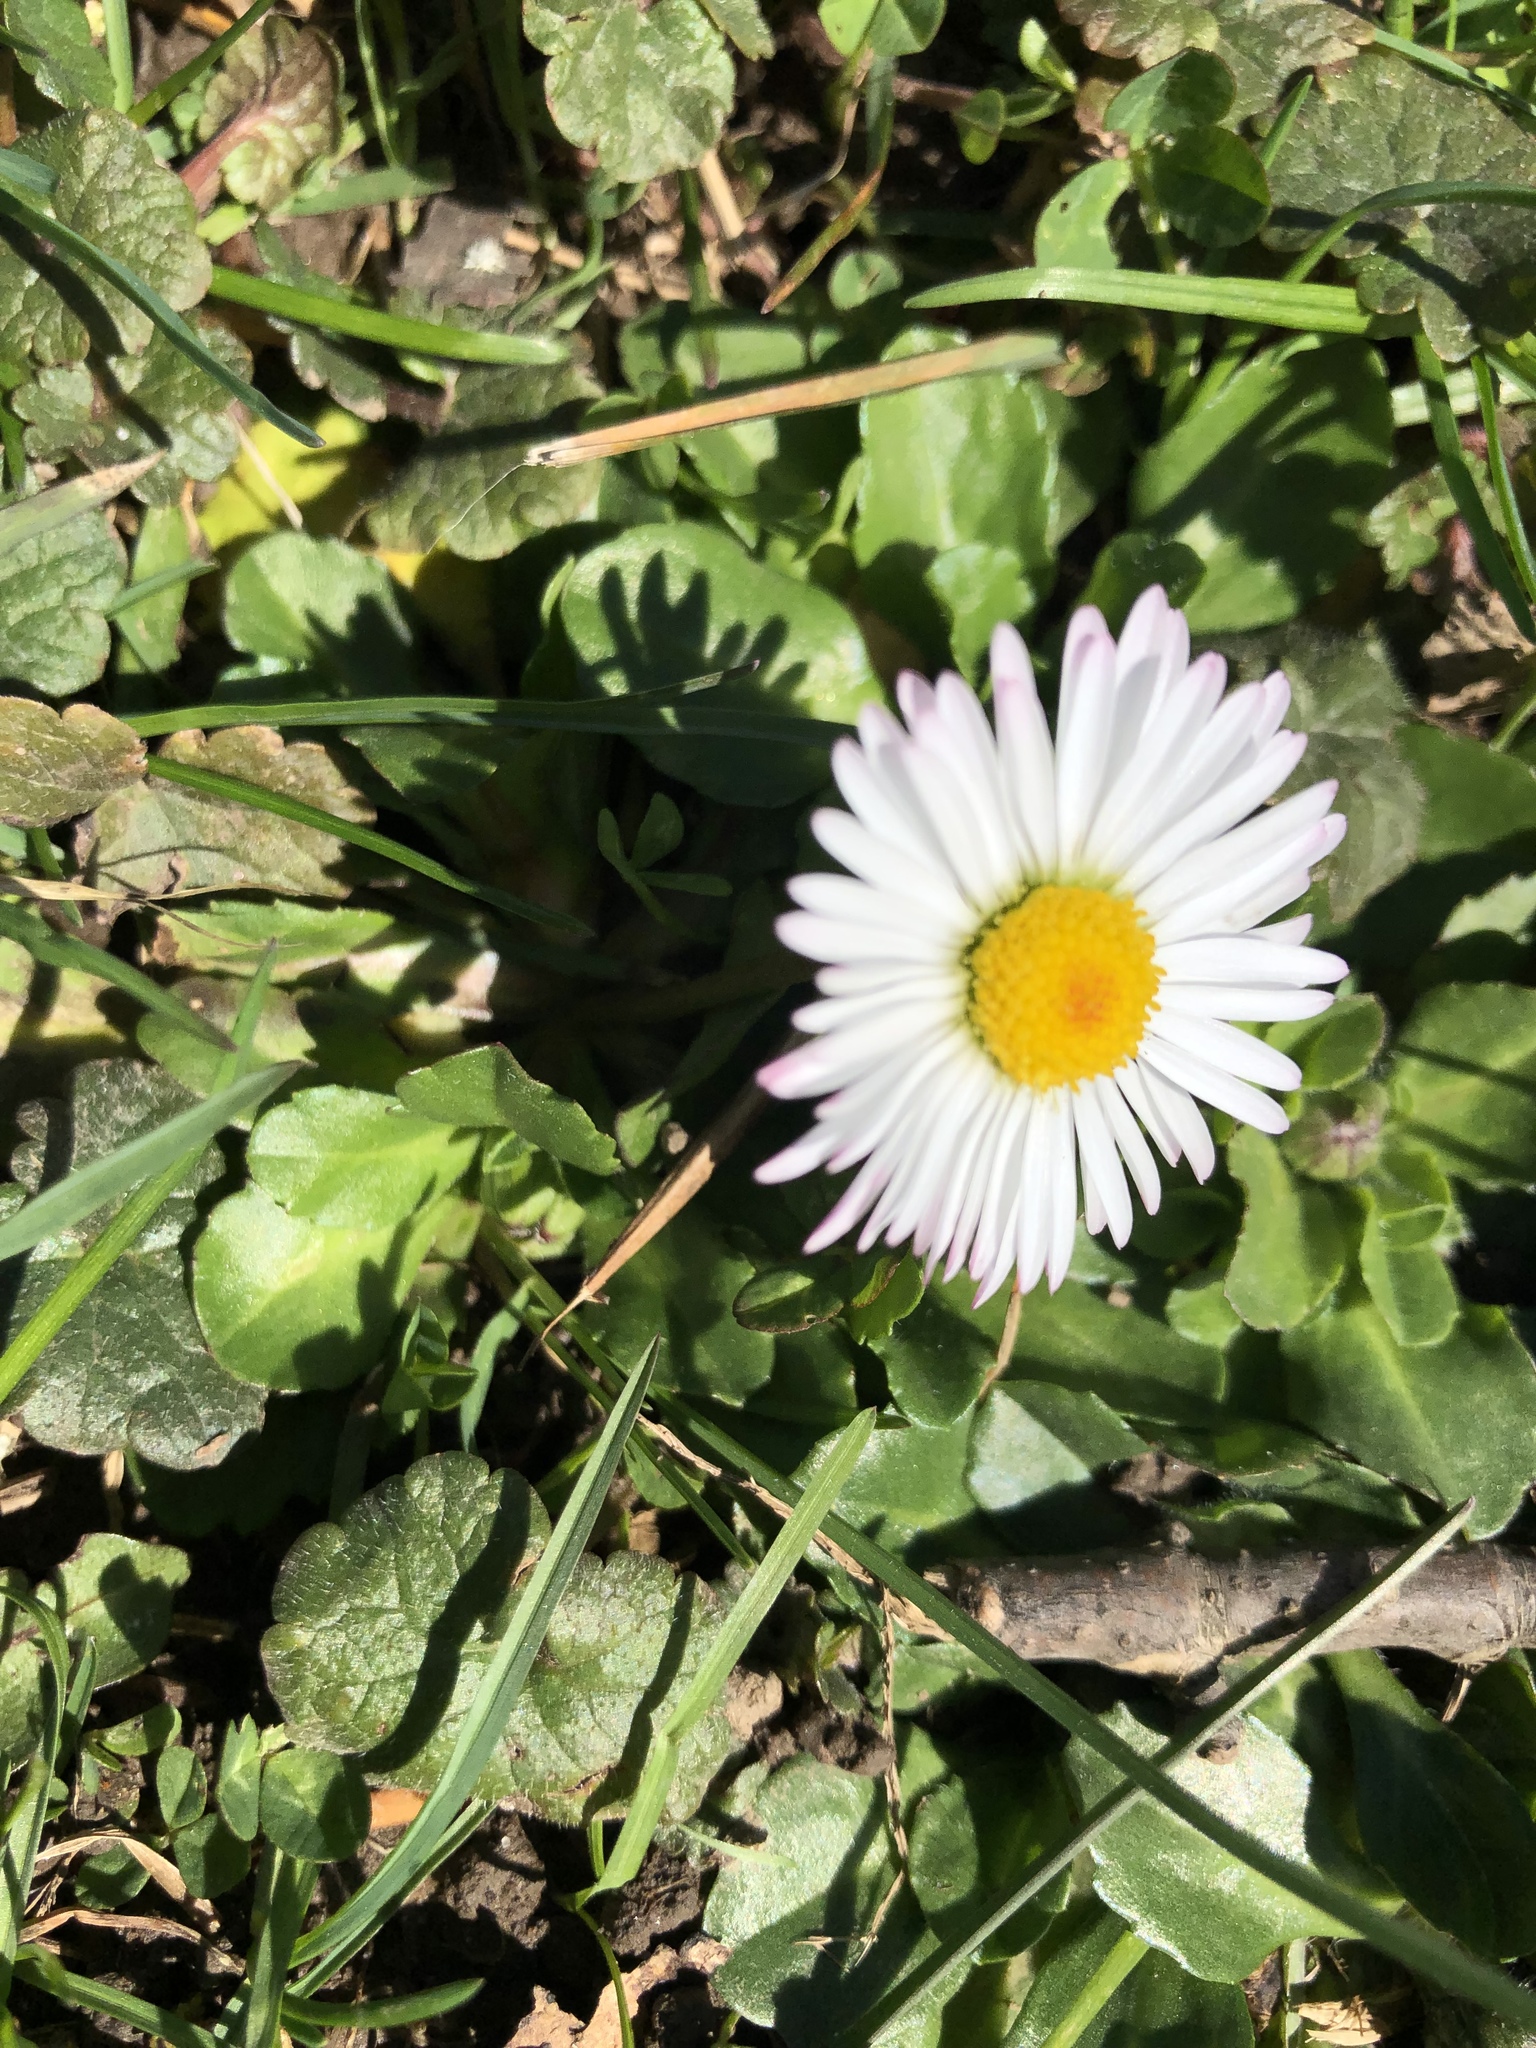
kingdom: Plantae
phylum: Tracheophyta
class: Magnoliopsida
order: Asterales
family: Asteraceae
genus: Bellis
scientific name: Bellis perennis
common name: Lawndaisy
